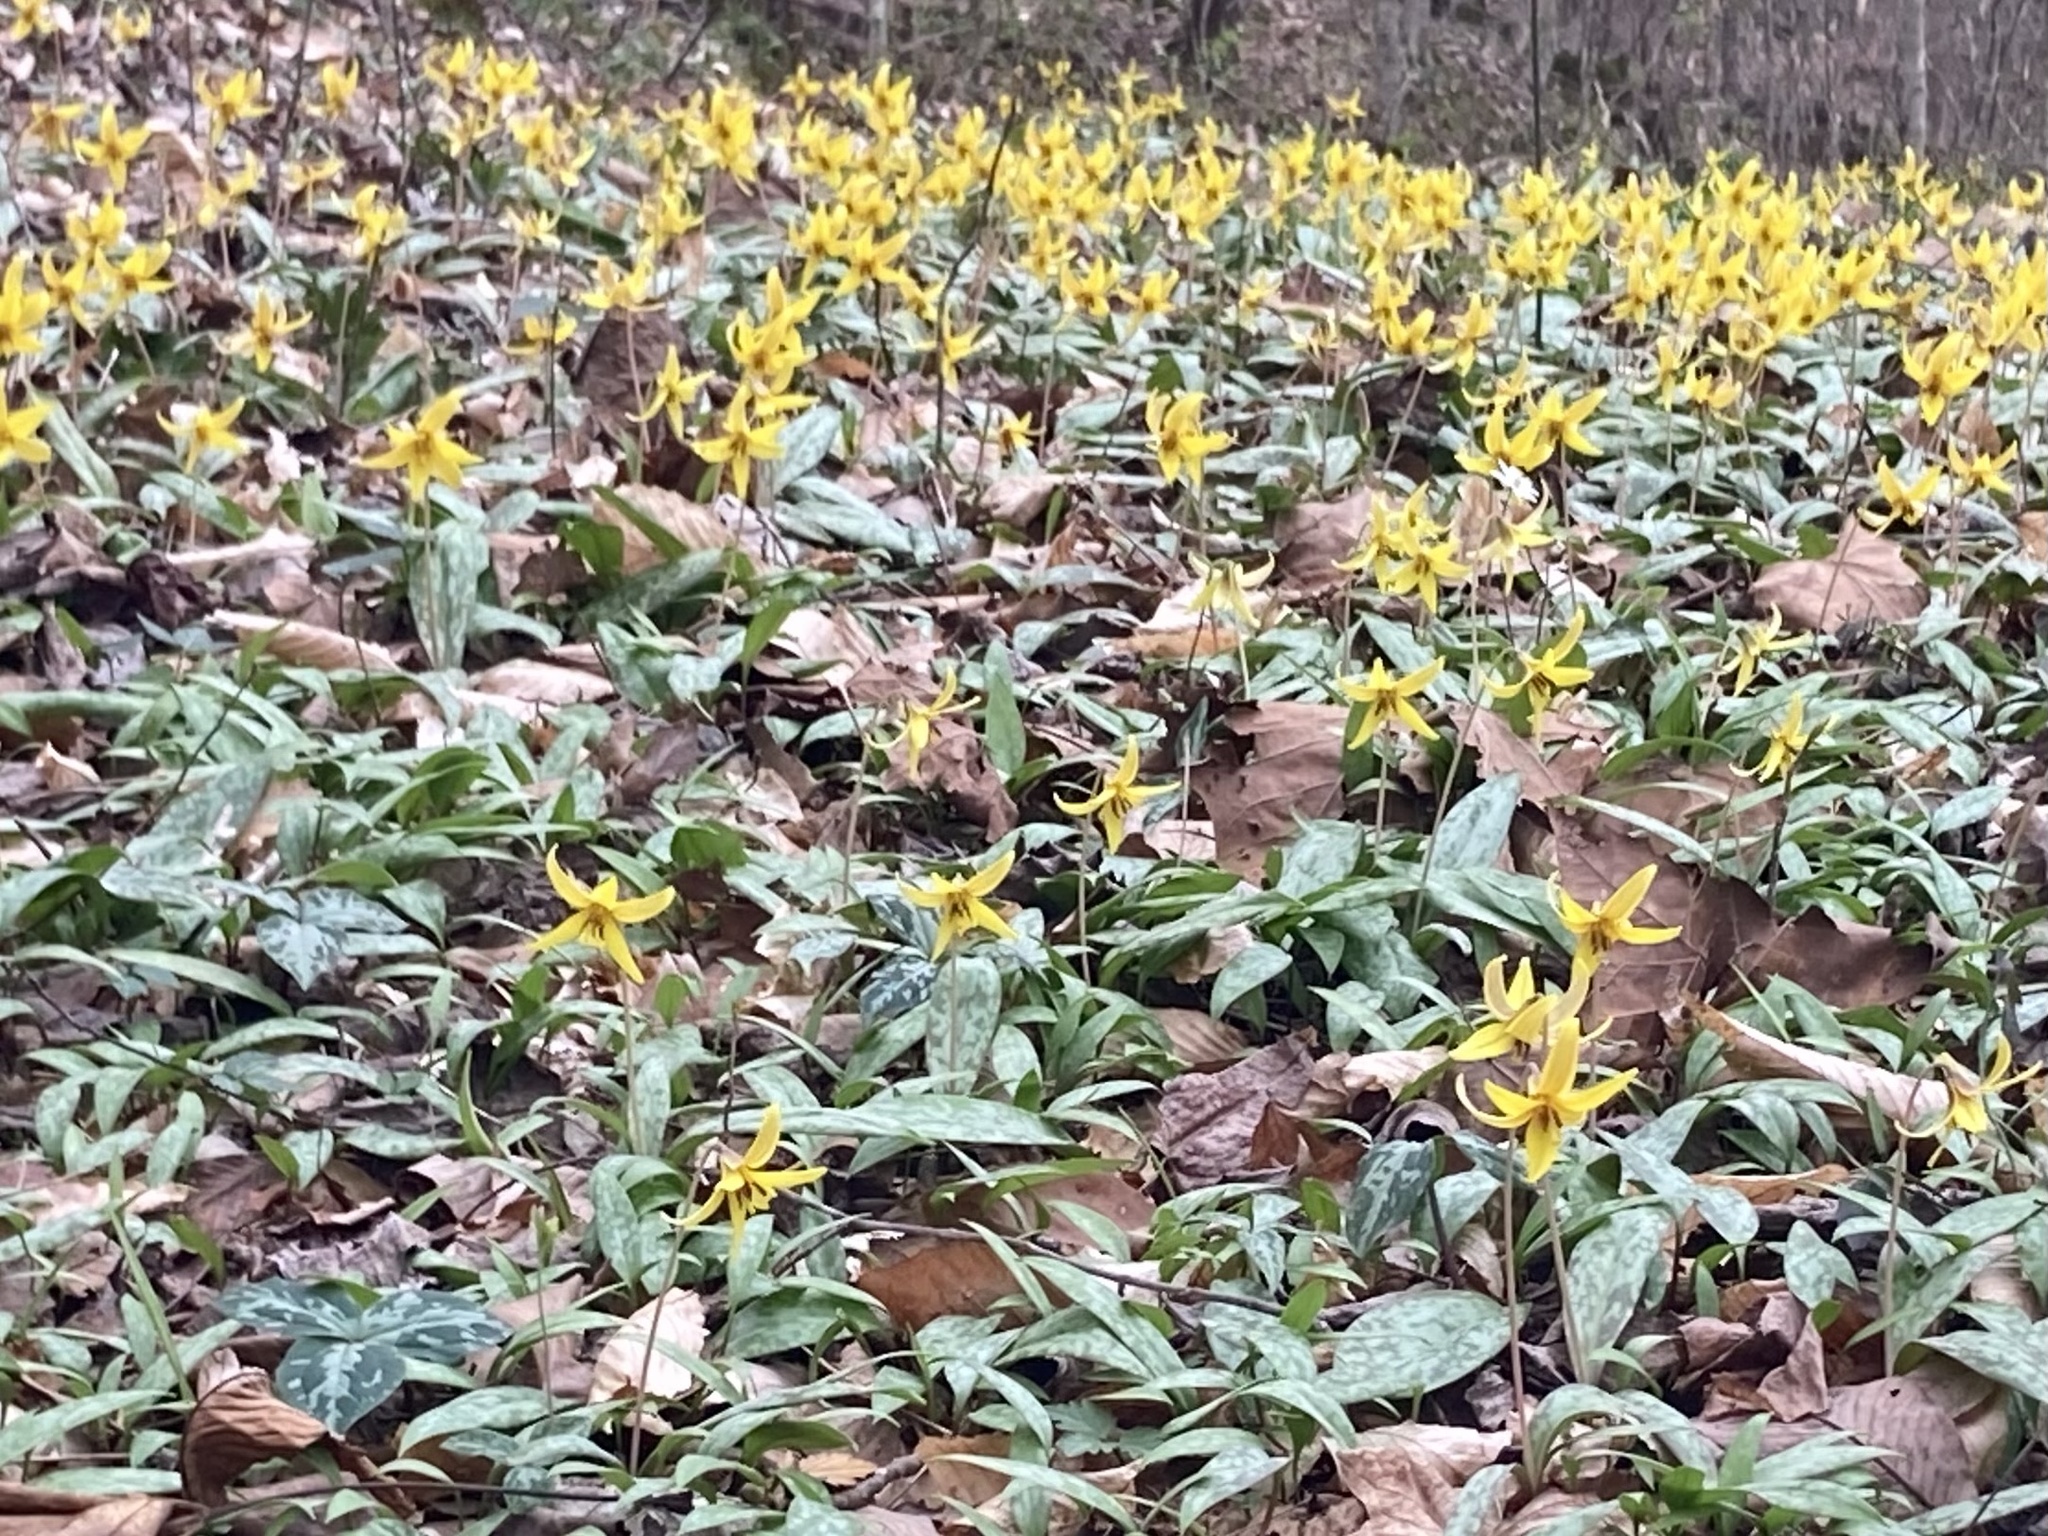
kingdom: Plantae
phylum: Tracheophyta
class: Liliopsida
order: Liliales
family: Liliaceae
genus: Erythronium
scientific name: Erythronium americanum
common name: Yellow adder's-tongue
